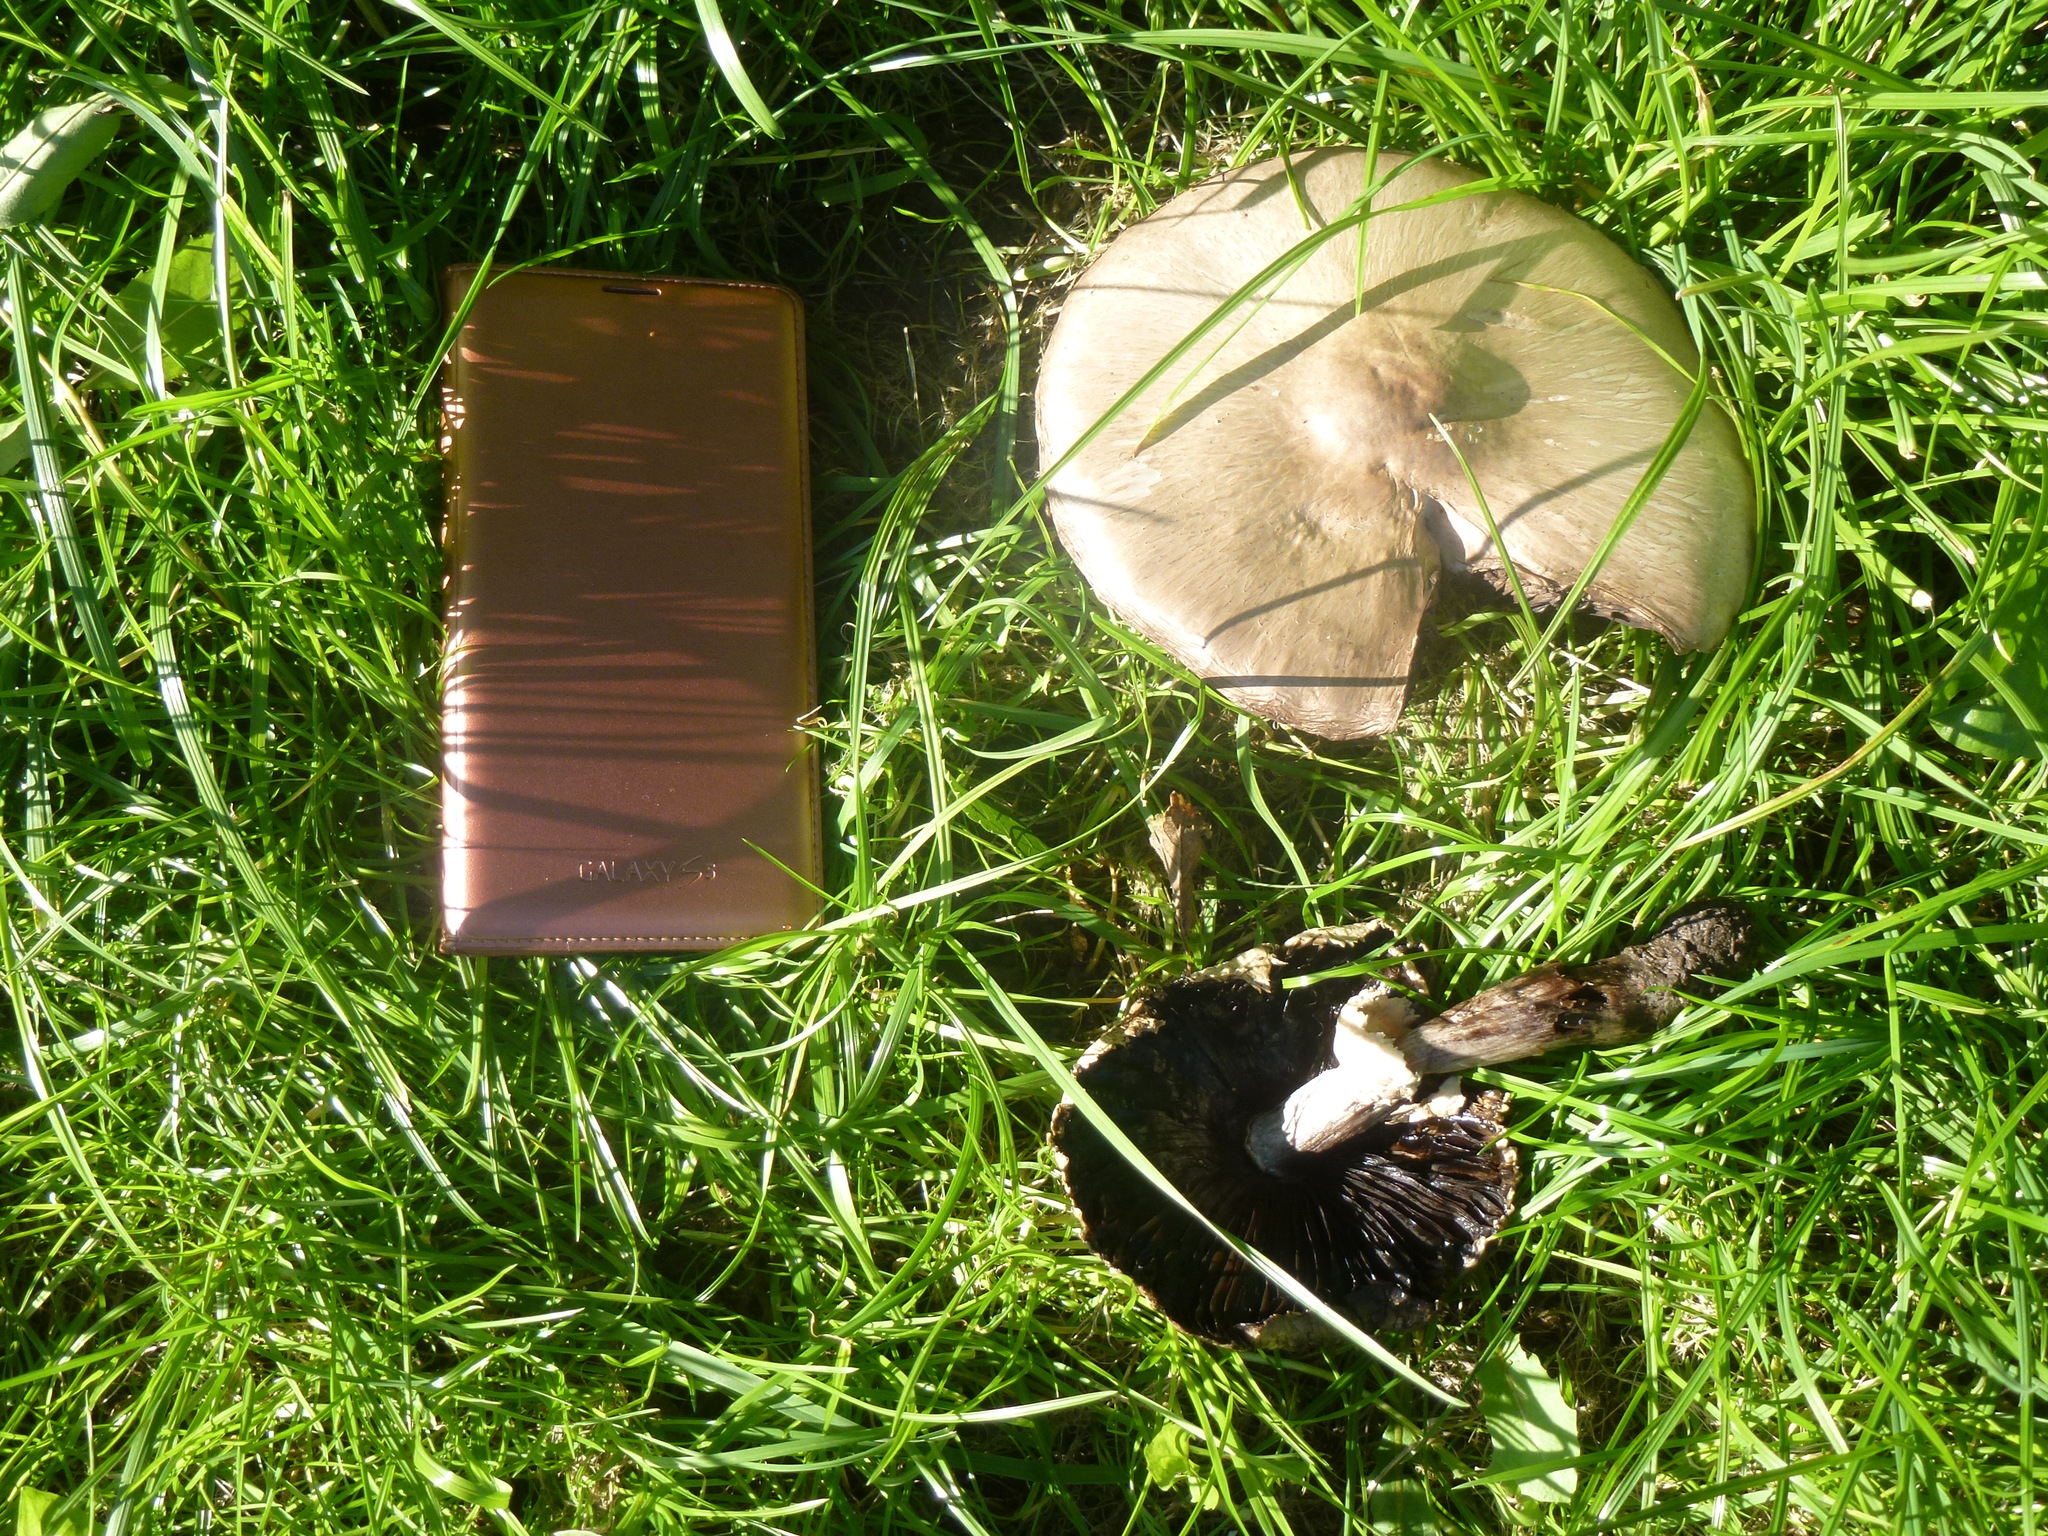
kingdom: Fungi
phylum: Basidiomycota
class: Agaricomycetes
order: Agaricales
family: Agaricaceae
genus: Agaricus
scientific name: Agaricus campestris
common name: Field mushroom
